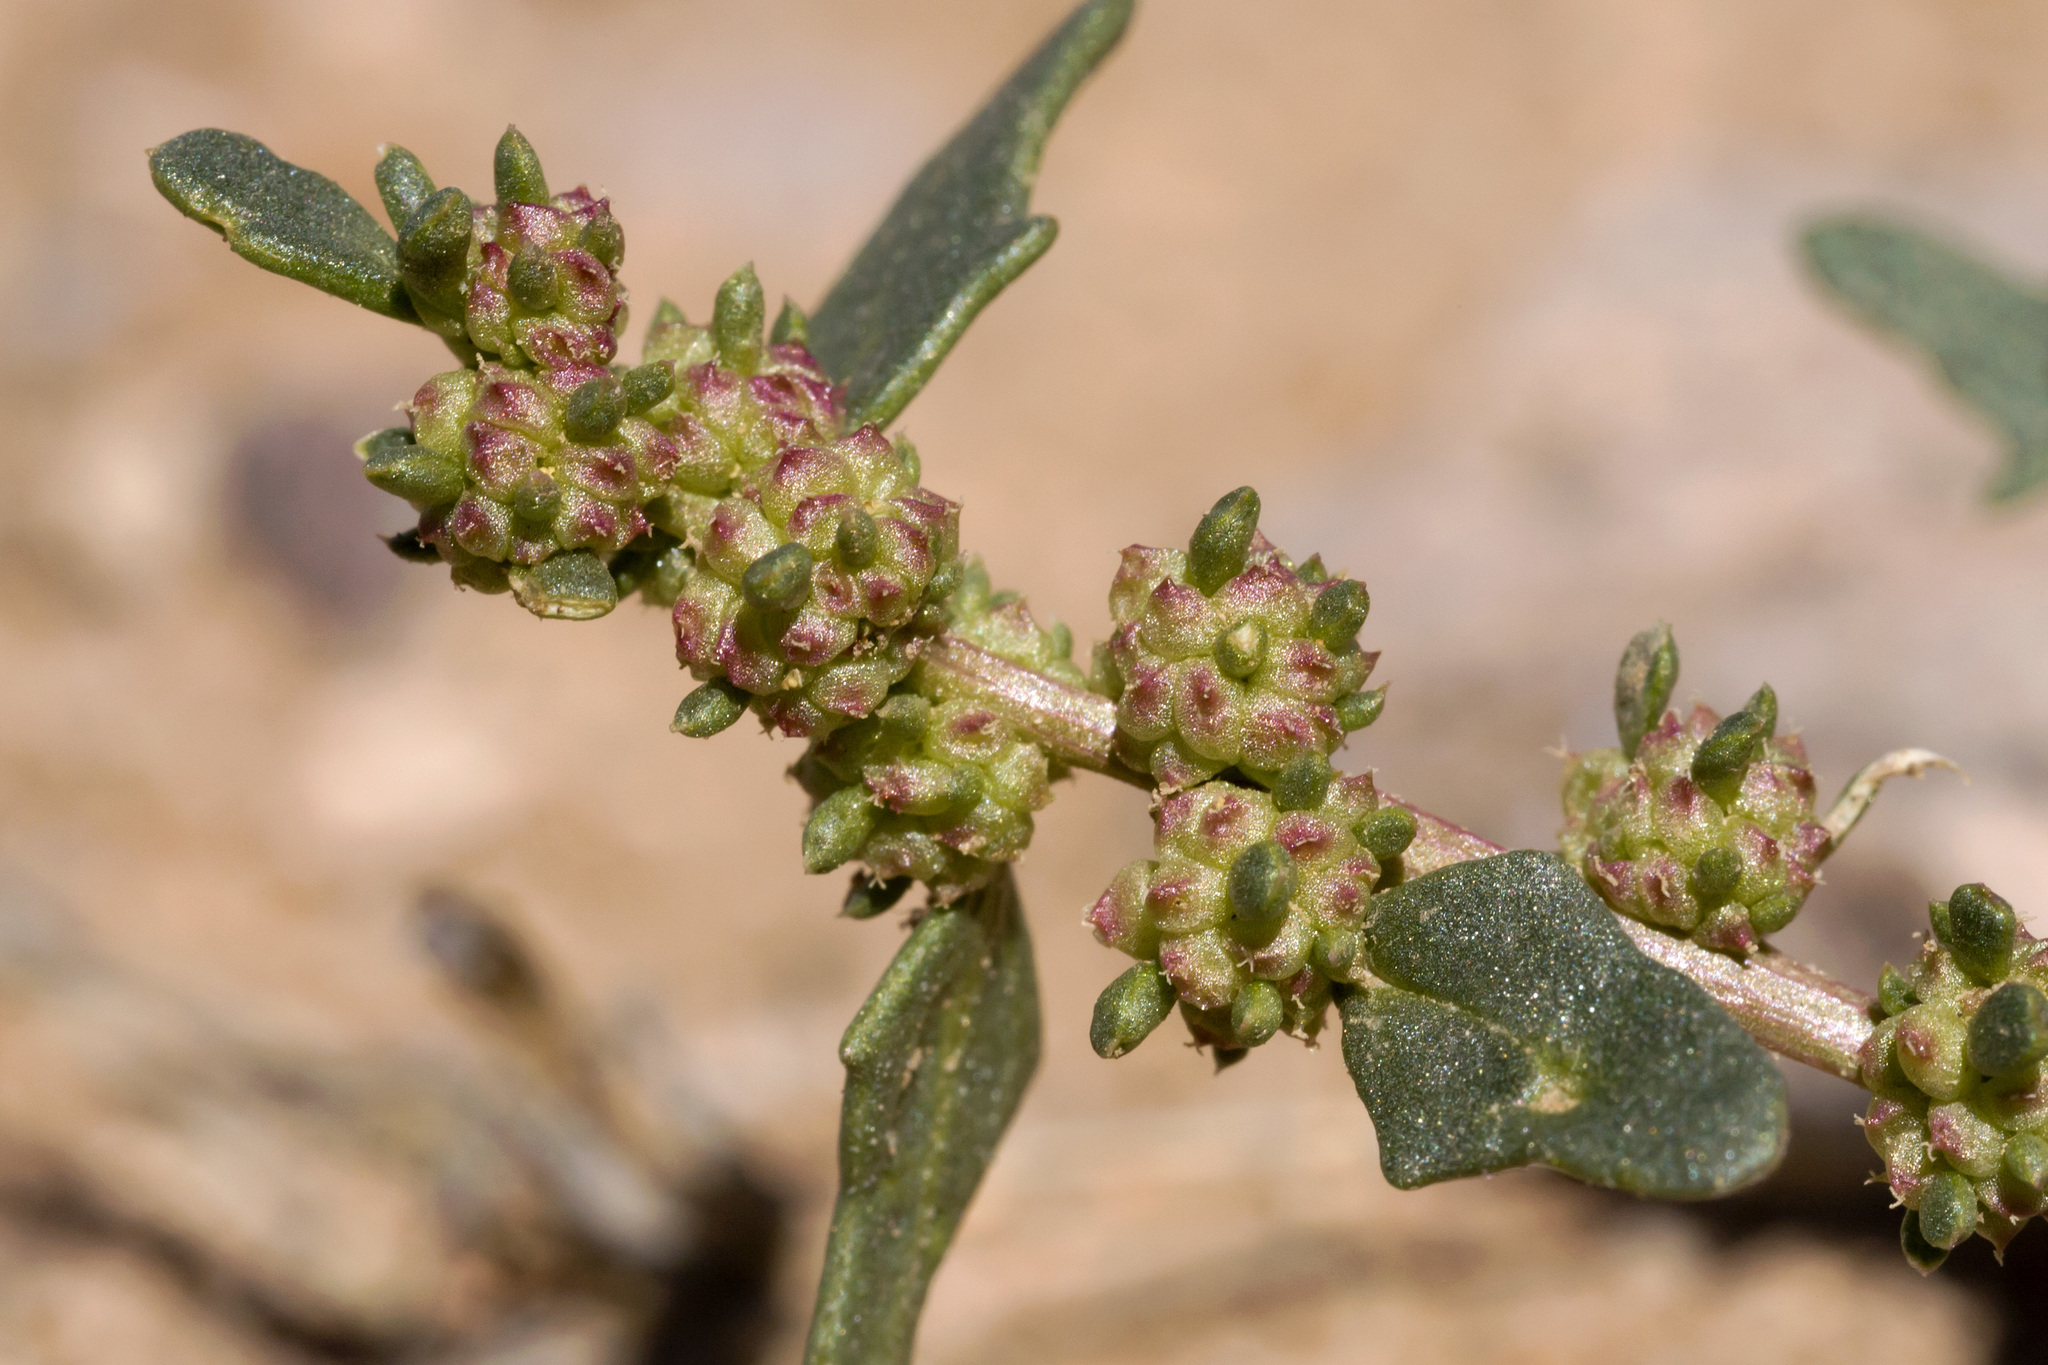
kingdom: Plantae
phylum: Tracheophyta
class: Magnoliopsida
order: Caryophyllales
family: Amaranthaceae
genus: Blitum
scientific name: Blitum nuttallianum
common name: Poverty-weed
